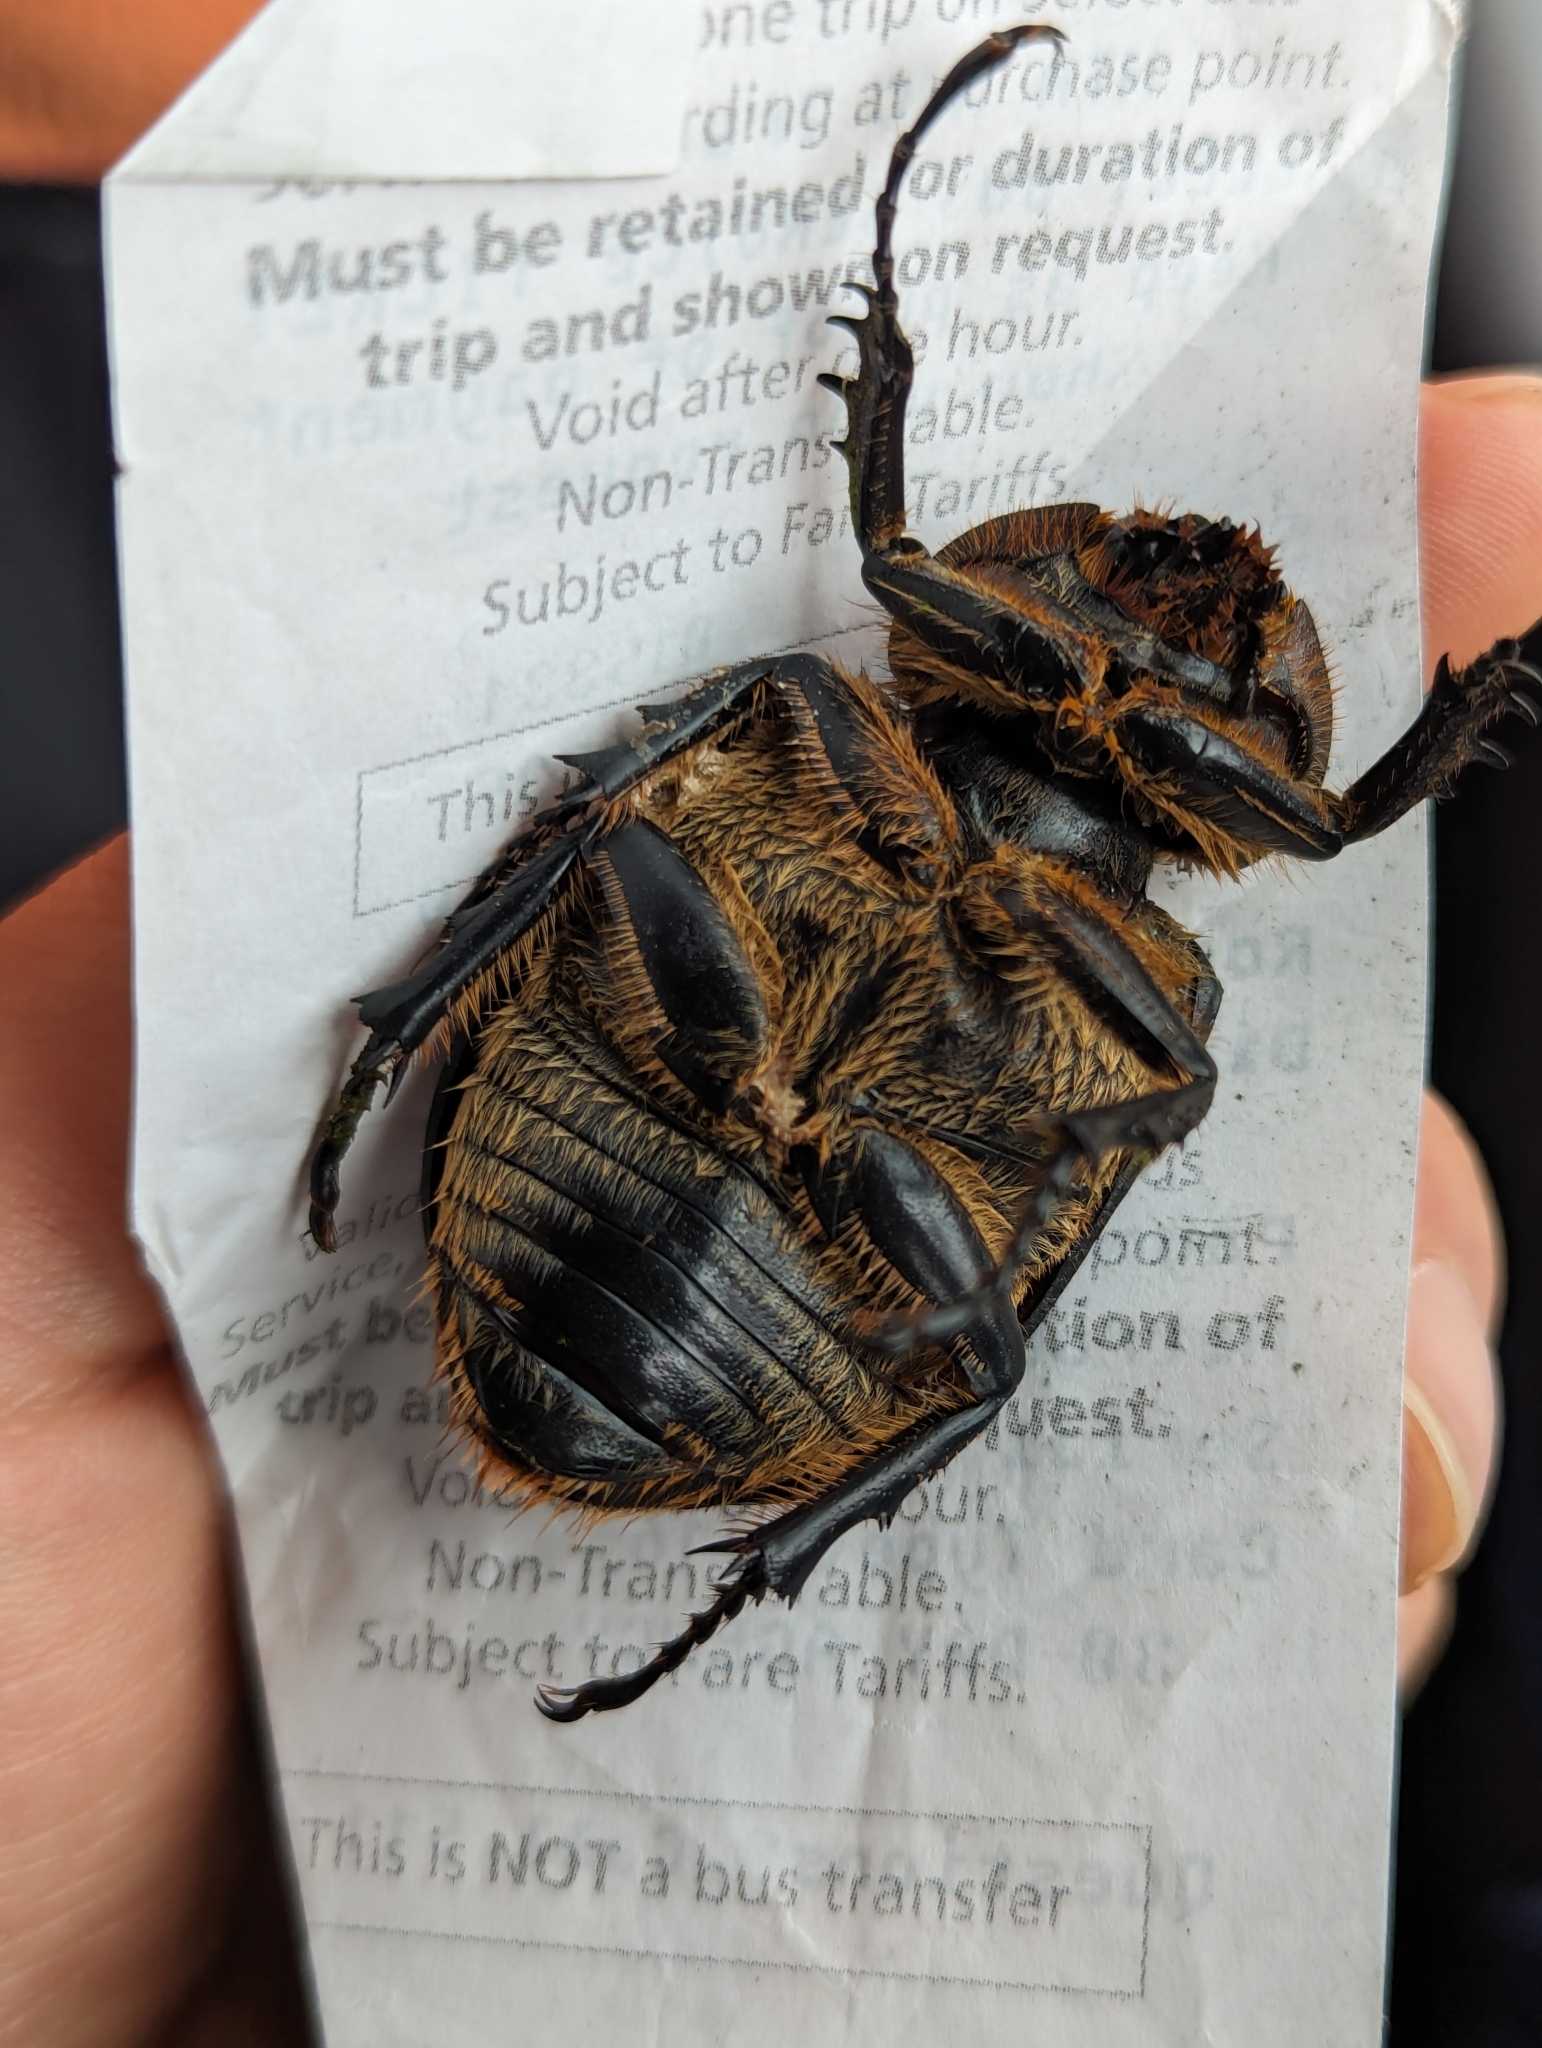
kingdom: Animalia
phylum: Arthropoda
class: Insecta
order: Coleoptera
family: Scarabaeidae
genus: Golofa
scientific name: Golofa eacus
